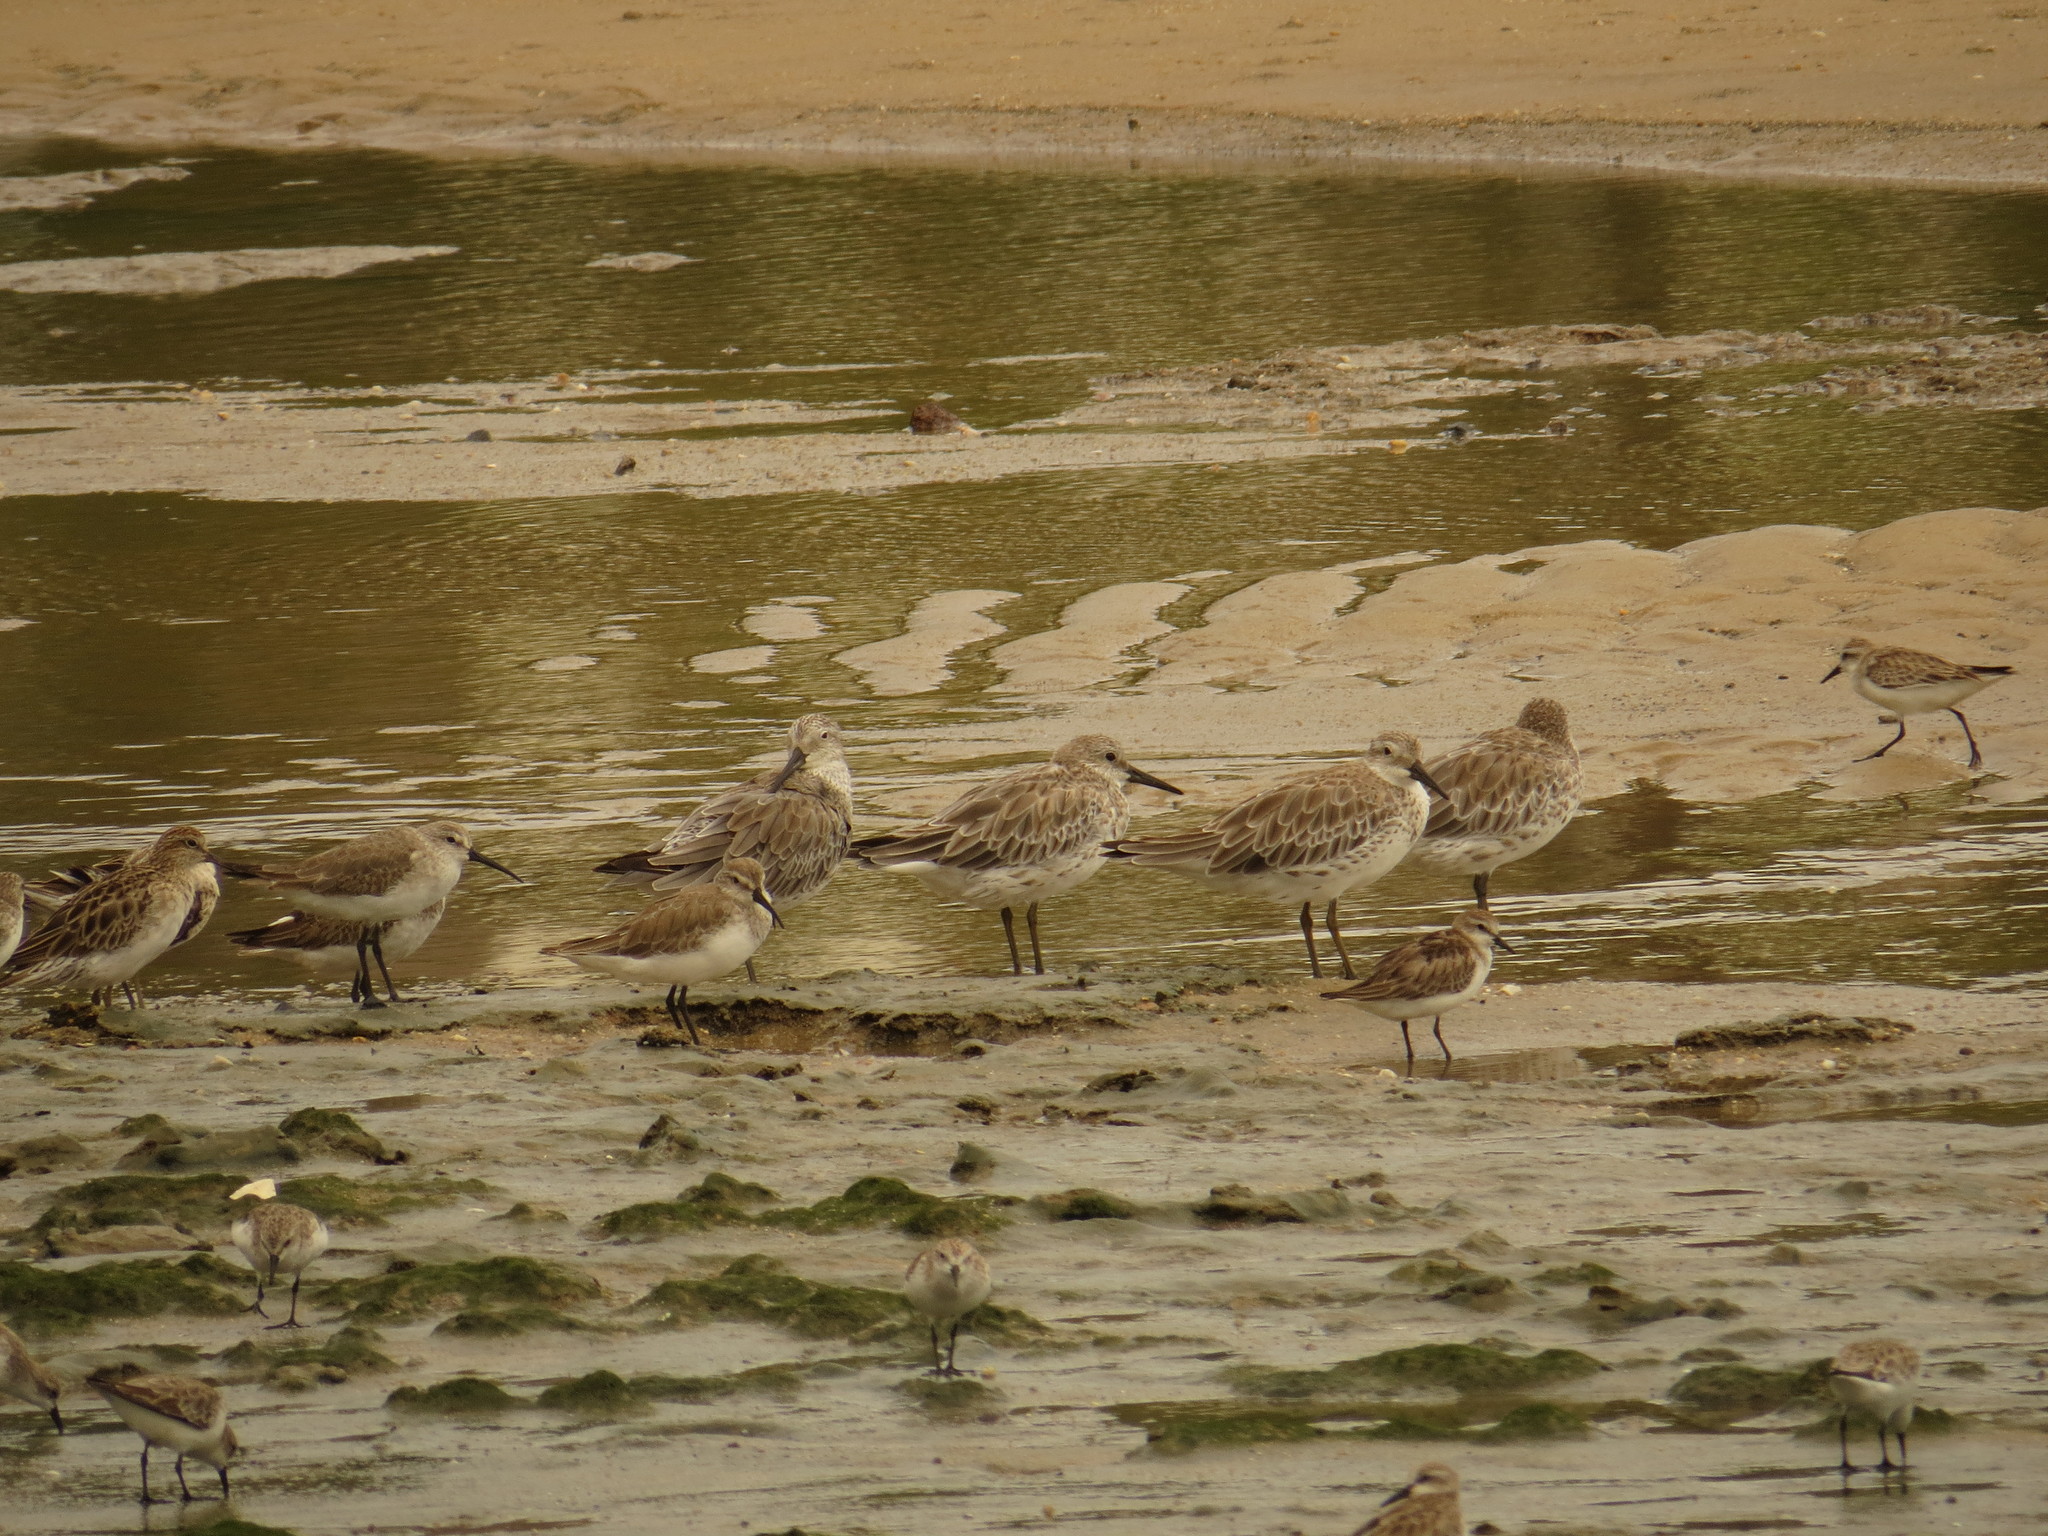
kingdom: Animalia
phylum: Chordata
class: Aves
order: Charadriiformes
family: Scolopacidae
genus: Calidris
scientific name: Calidris ferruginea
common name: Curlew sandpiper
